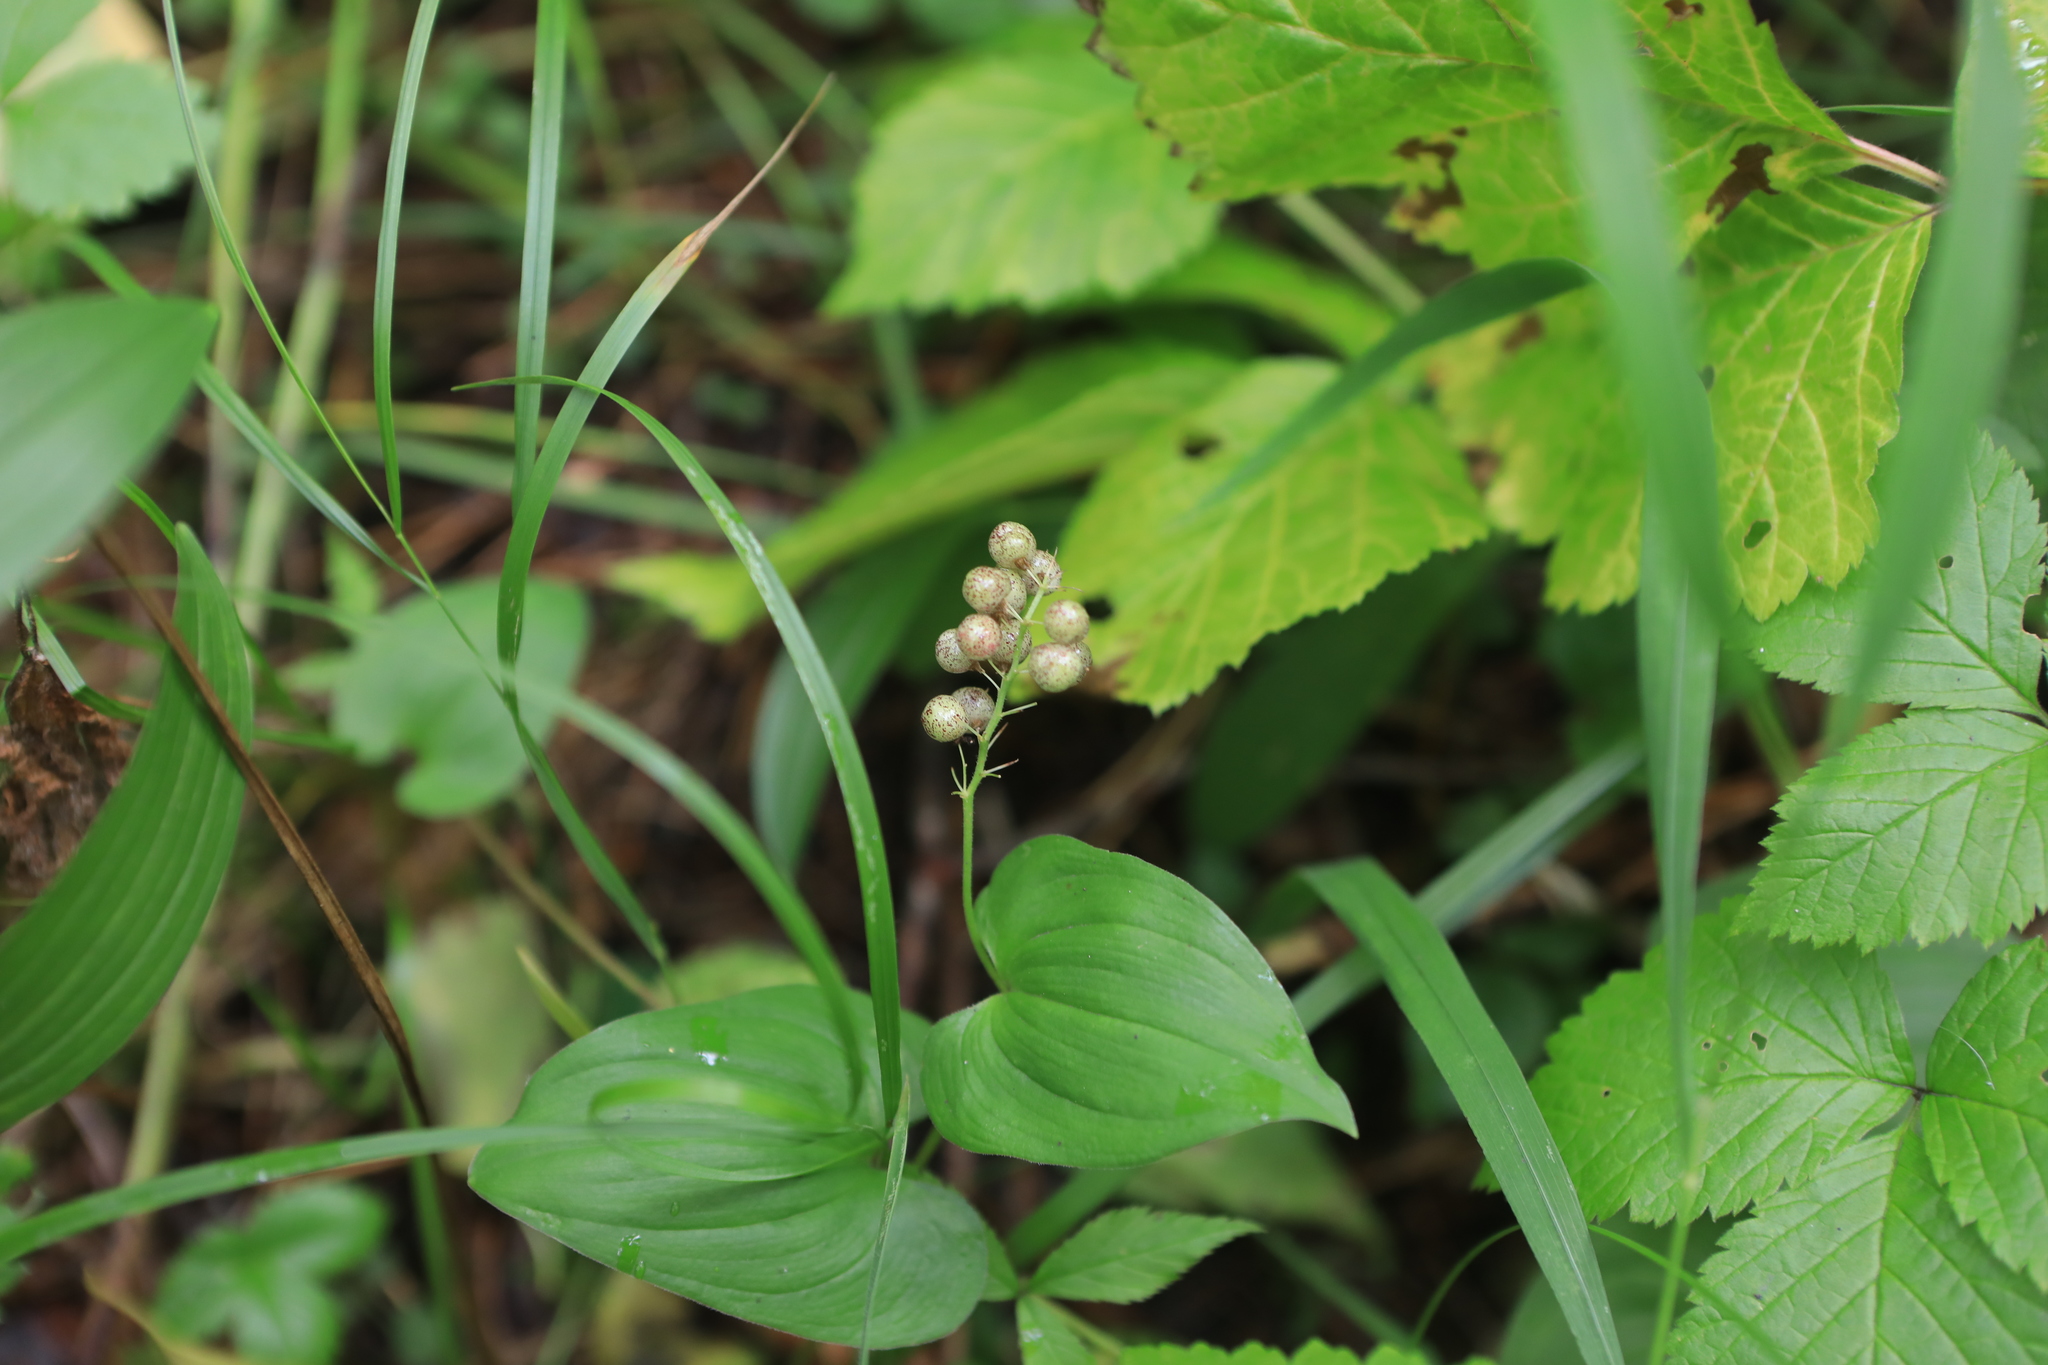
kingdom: Plantae
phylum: Tracheophyta
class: Liliopsida
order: Asparagales
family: Asparagaceae
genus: Maianthemum
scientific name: Maianthemum bifolium
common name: May lily
